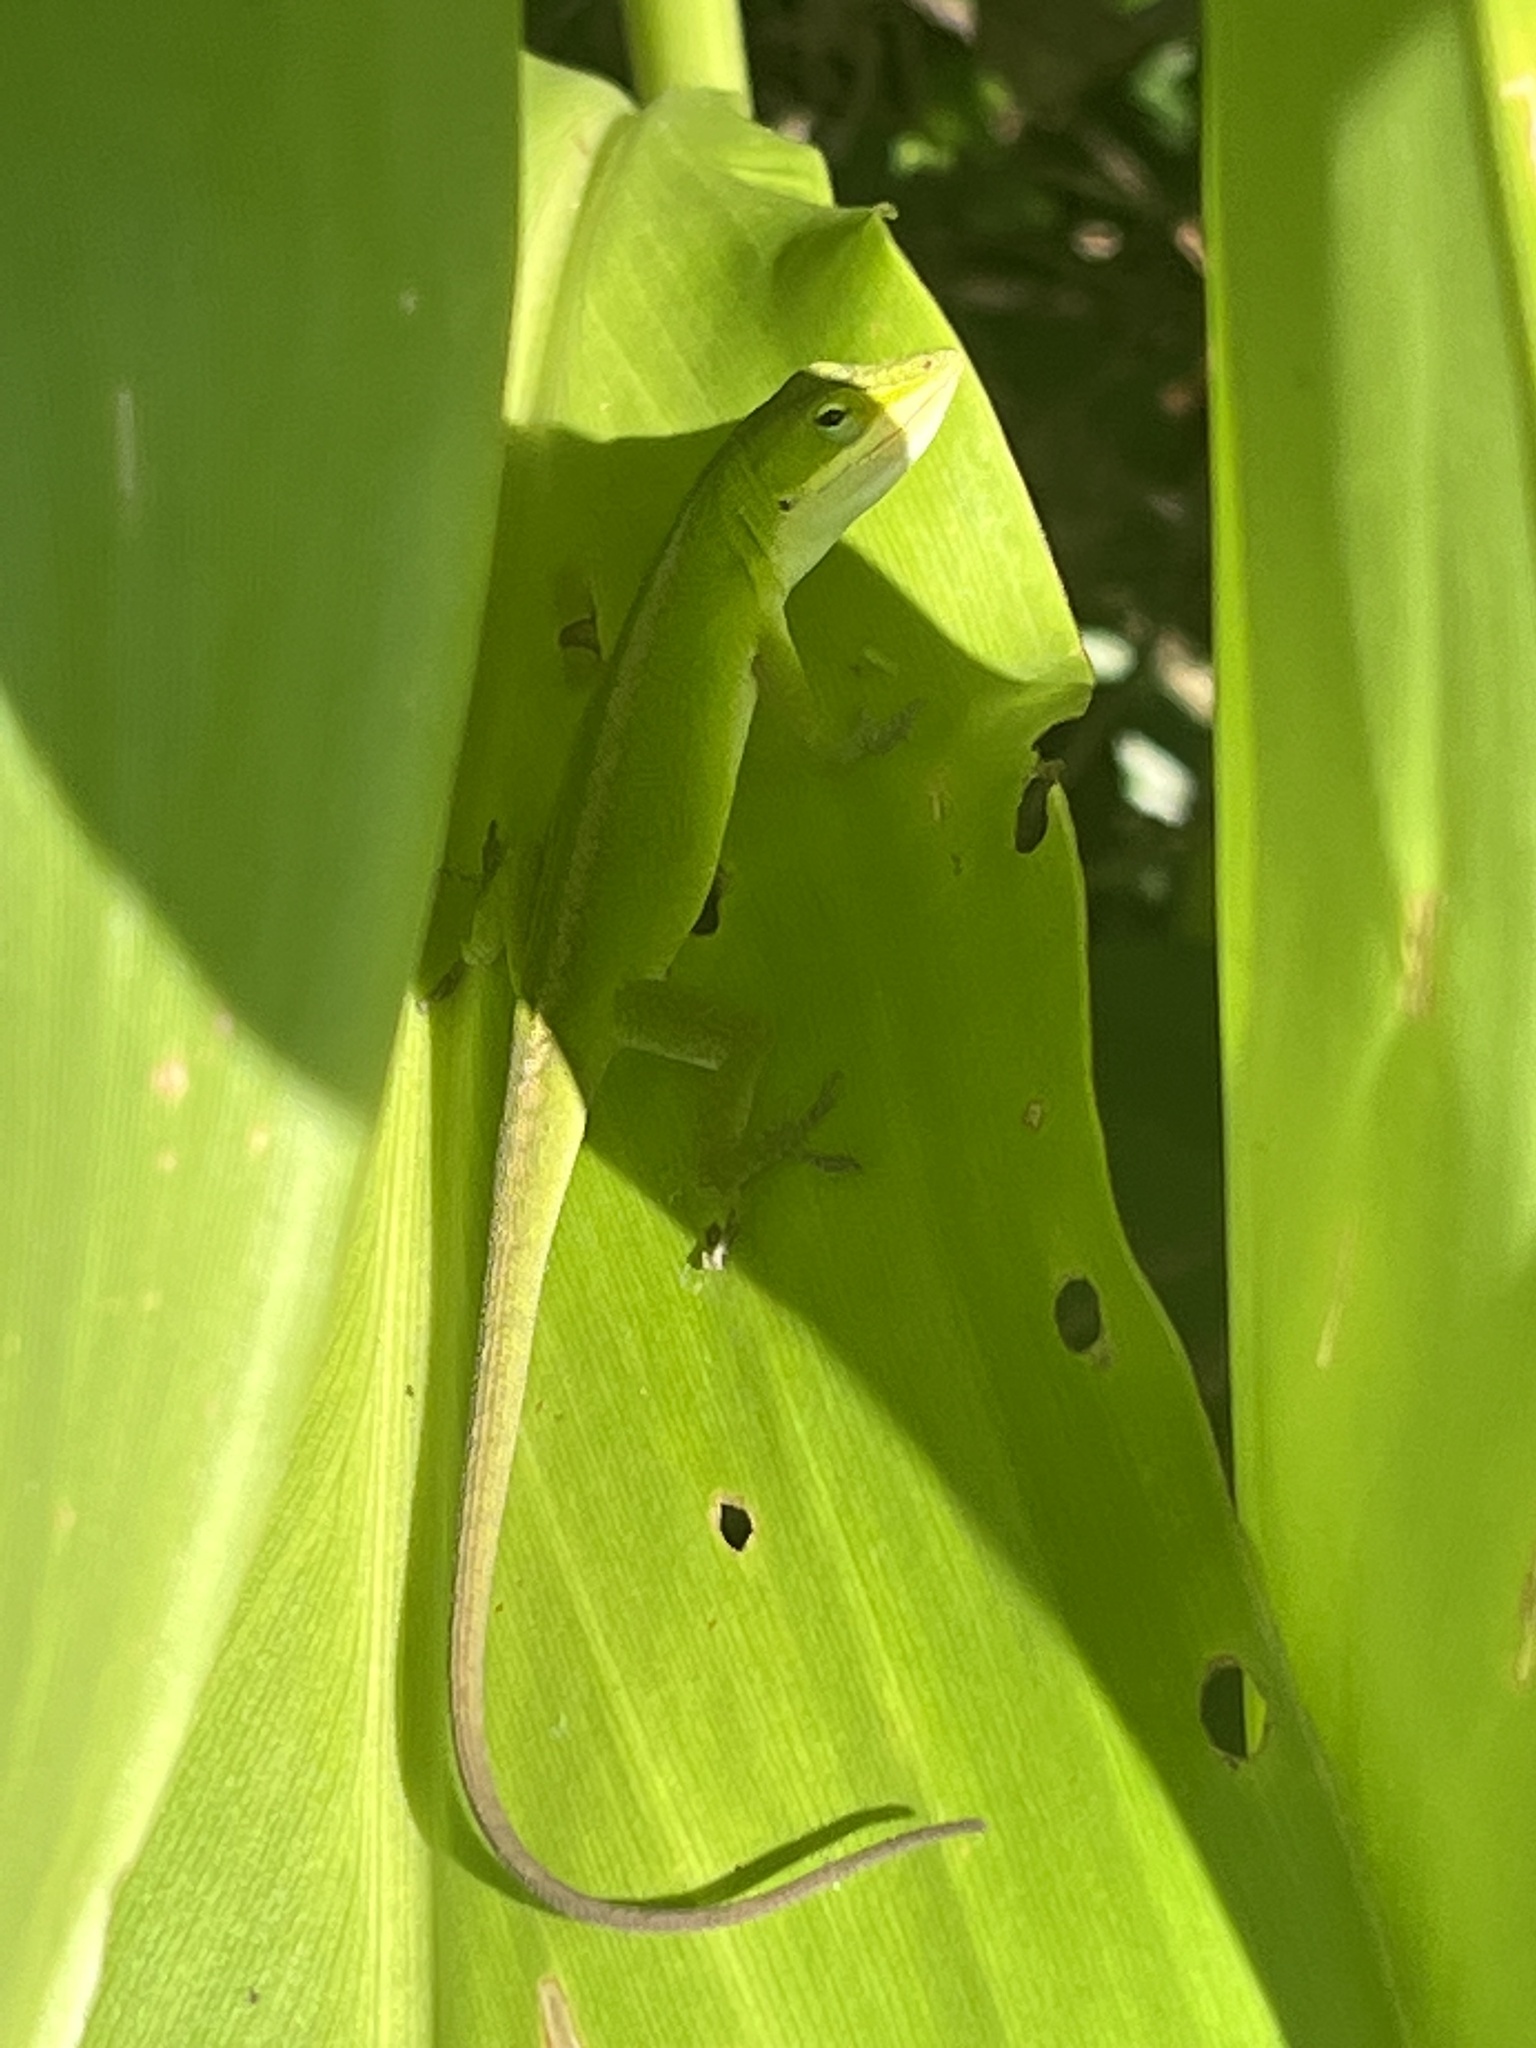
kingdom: Animalia
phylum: Chordata
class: Squamata
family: Dactyloidae
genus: Anolis
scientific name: Anolis carolinensis
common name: Green anole
